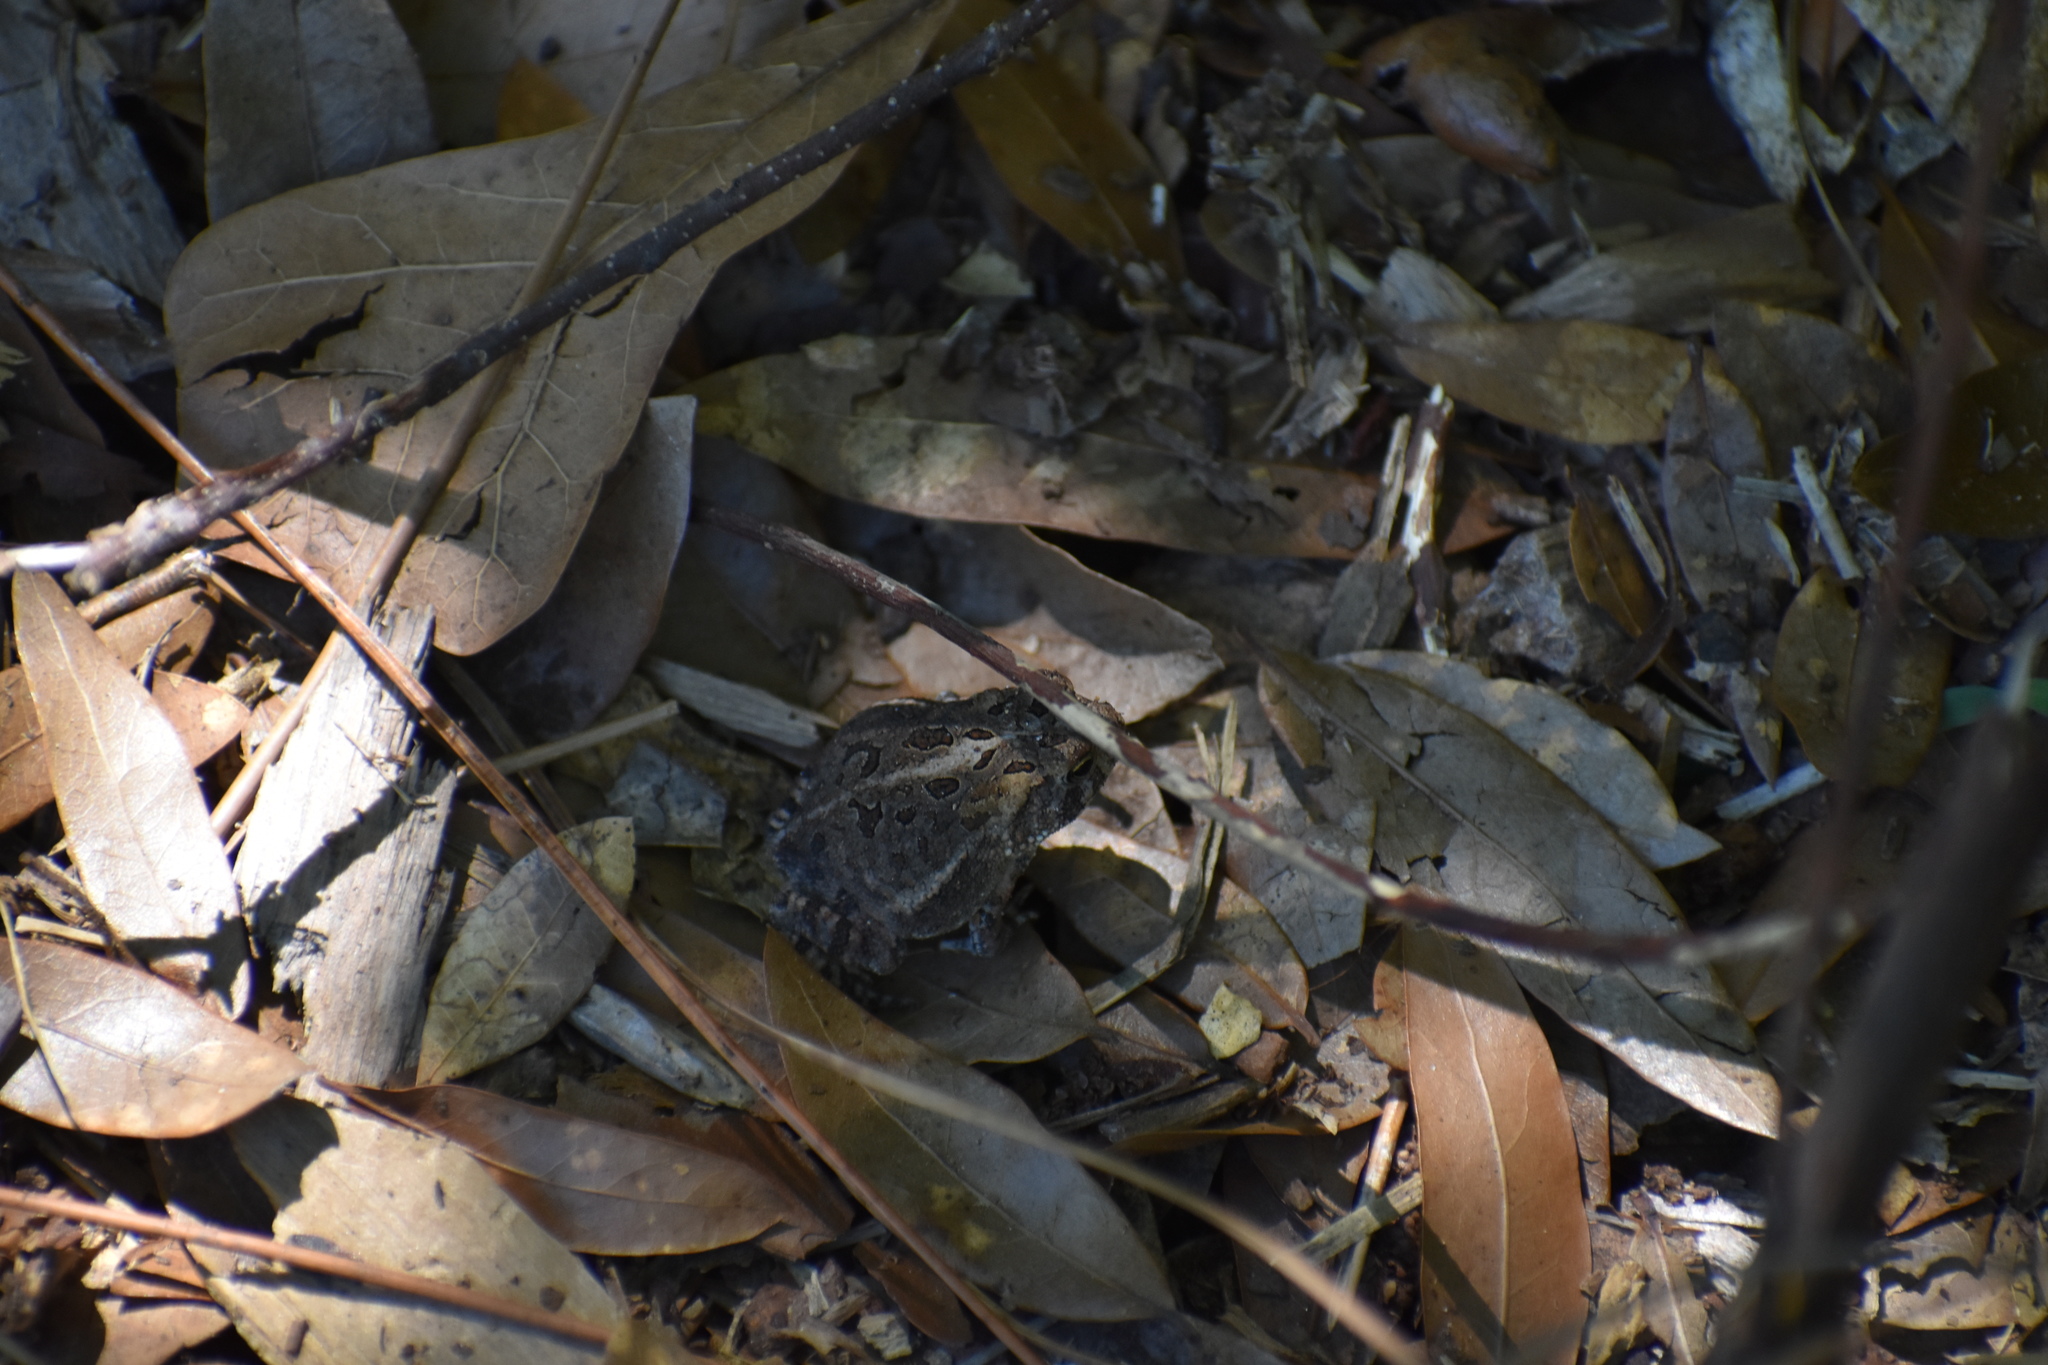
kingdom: Animalia
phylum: Chordata
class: Amphibia
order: Anura
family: Bufonidae
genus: Anaxyrus
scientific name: Anaxyrus terrestris
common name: Southern toad
